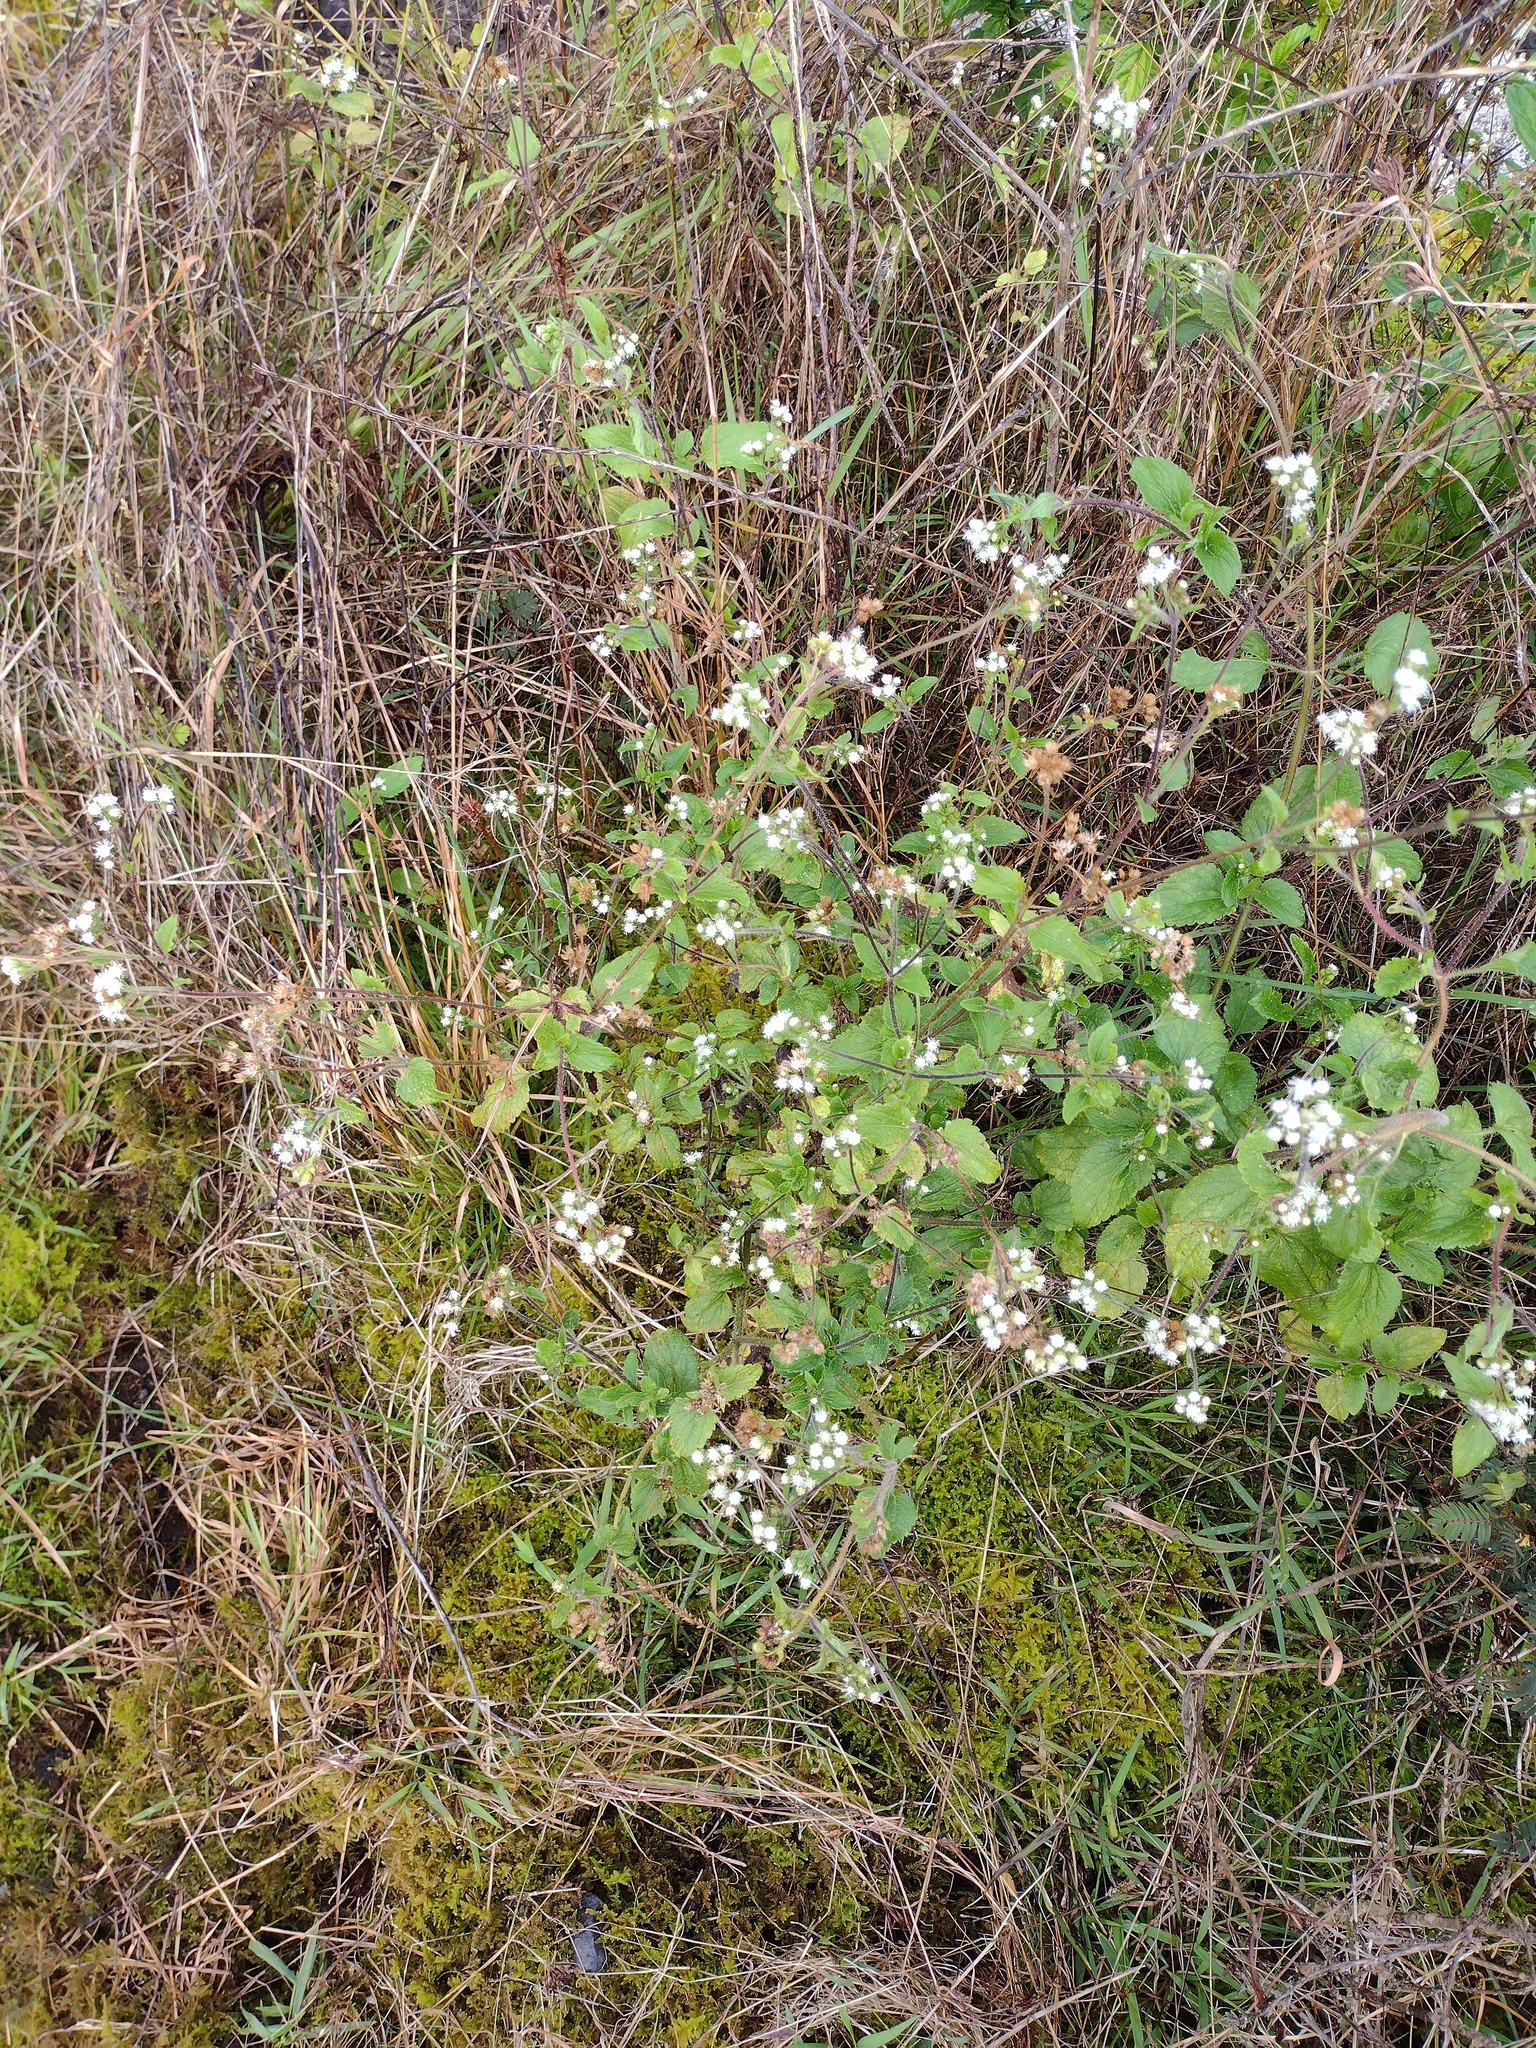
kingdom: Plantae
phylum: Tracheophyta
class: Magnoliopsida
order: Asterales
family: Asteraceae
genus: Ageratum
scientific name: Ageratum conyzoides
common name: Tropical whiteweed
